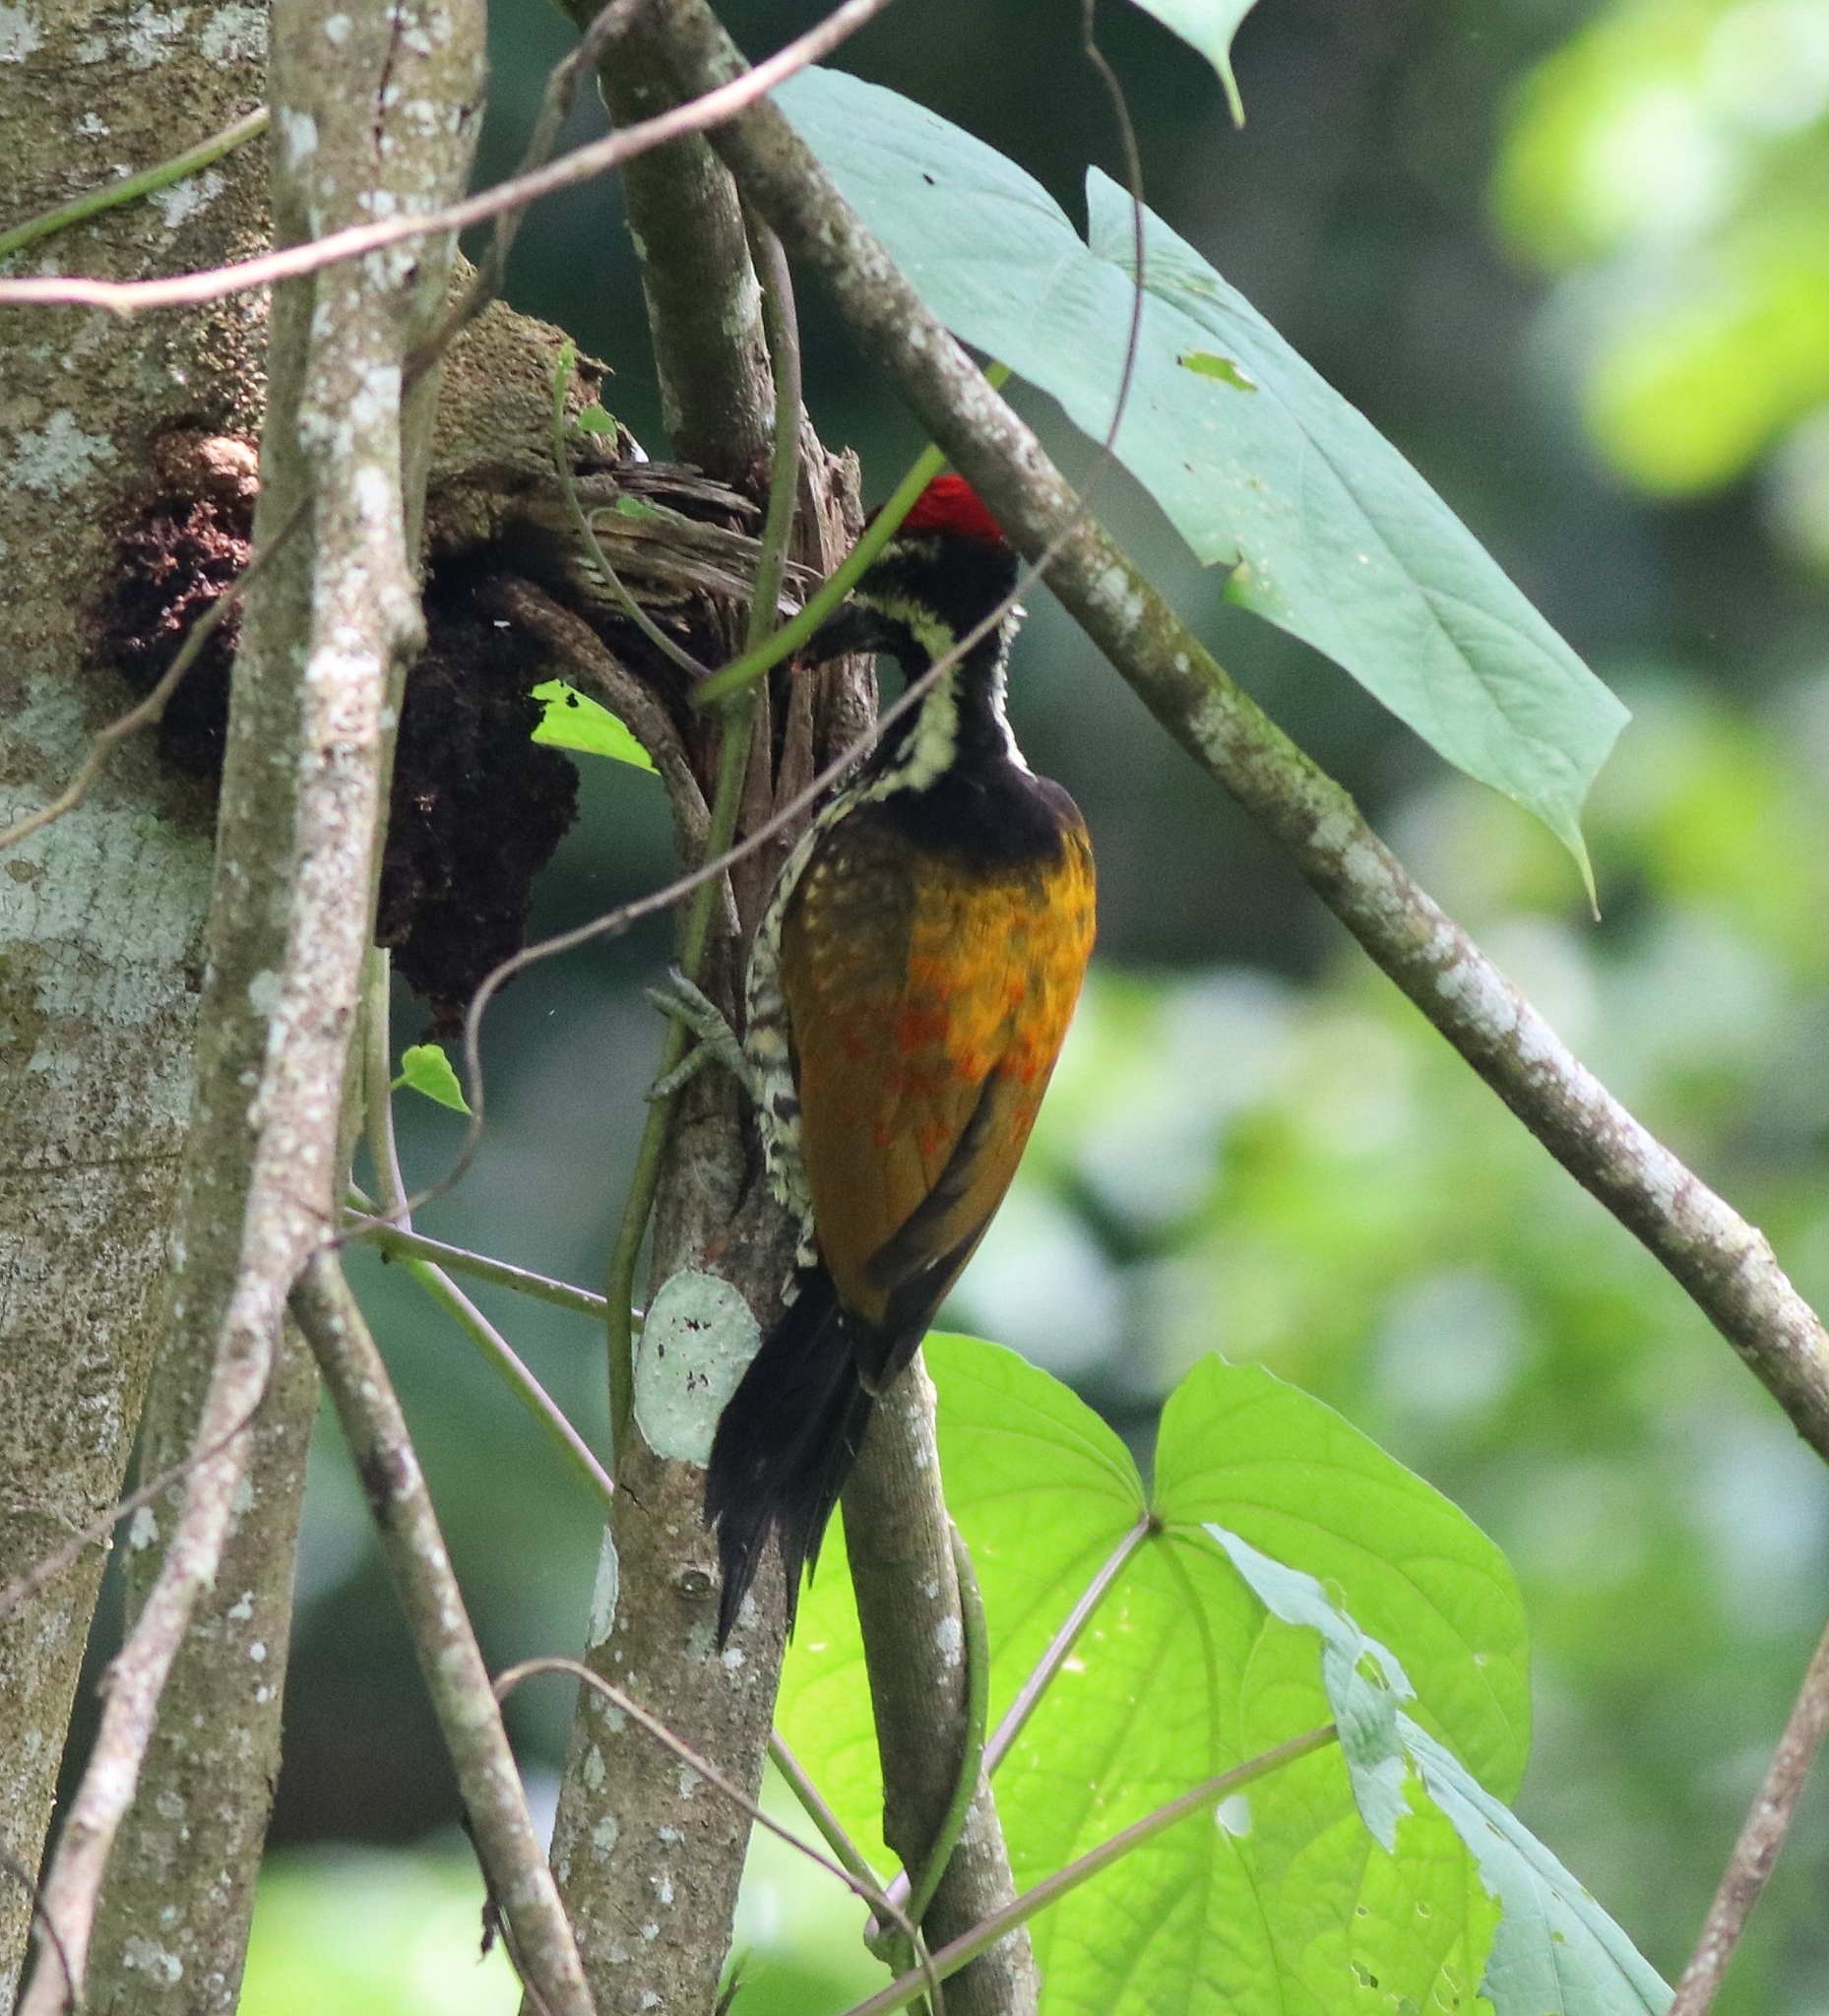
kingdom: Animalia
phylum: Chordata
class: Aves
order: Piciformes
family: Picidae
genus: Dinopium
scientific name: Dinopium benghalense
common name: Black-rumped flameback
